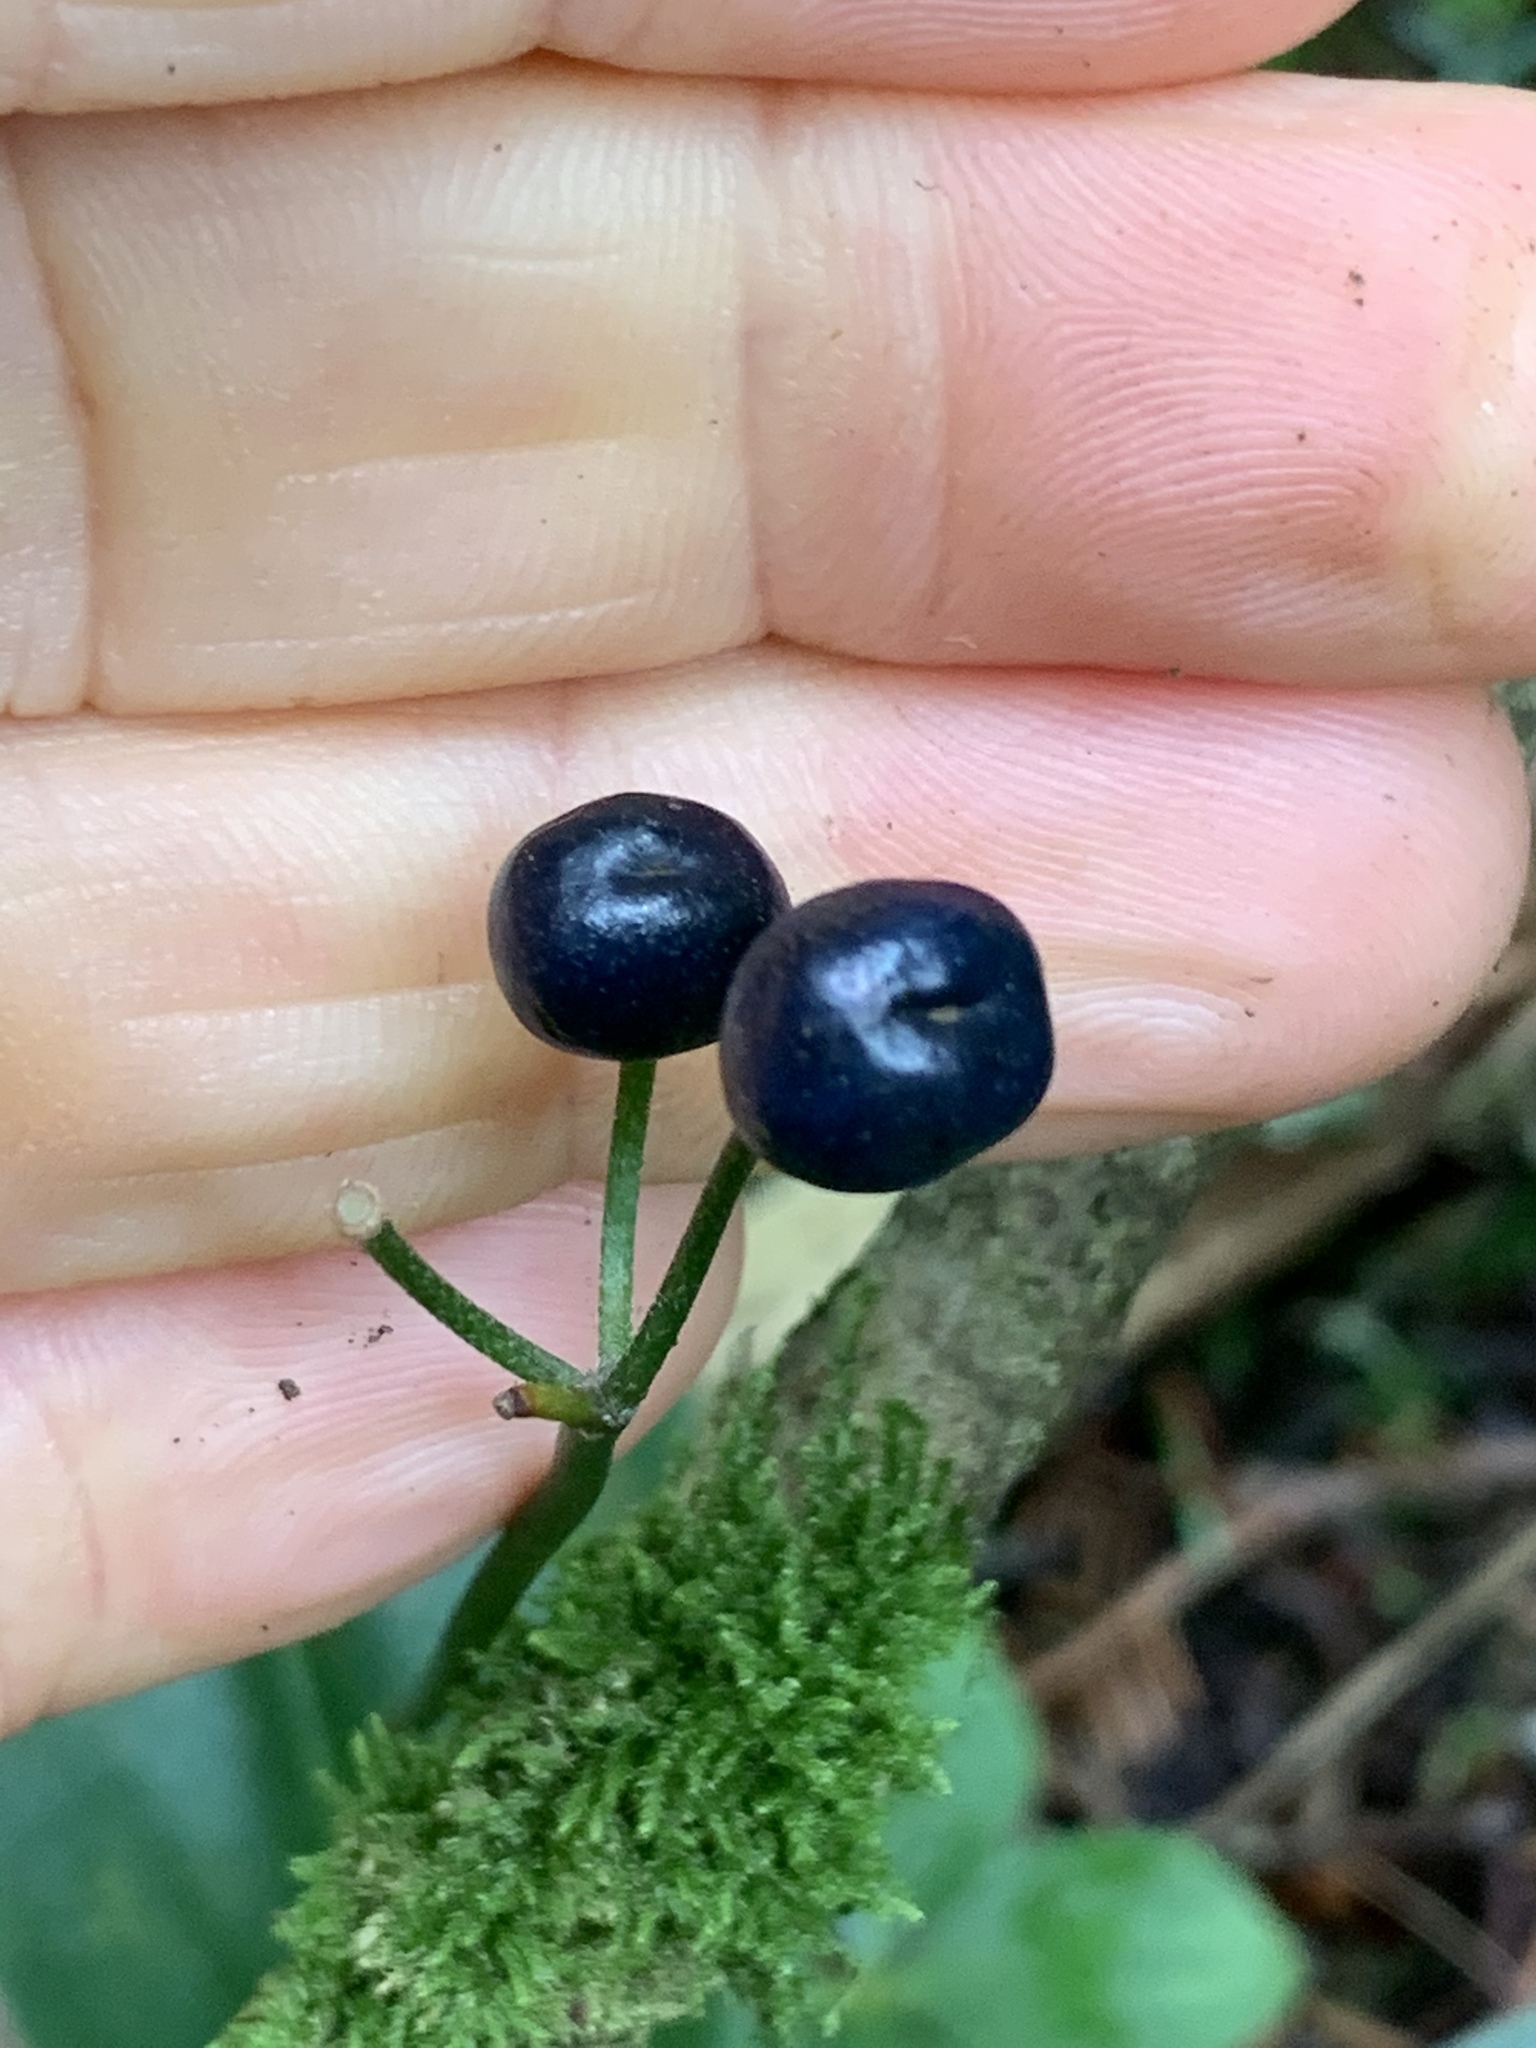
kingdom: Plantae
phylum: Tracheophyta
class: Liliopsida
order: Liliales
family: Liliaceae
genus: Clintonia
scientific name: Clintonia borealis
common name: Yellow clintonia
